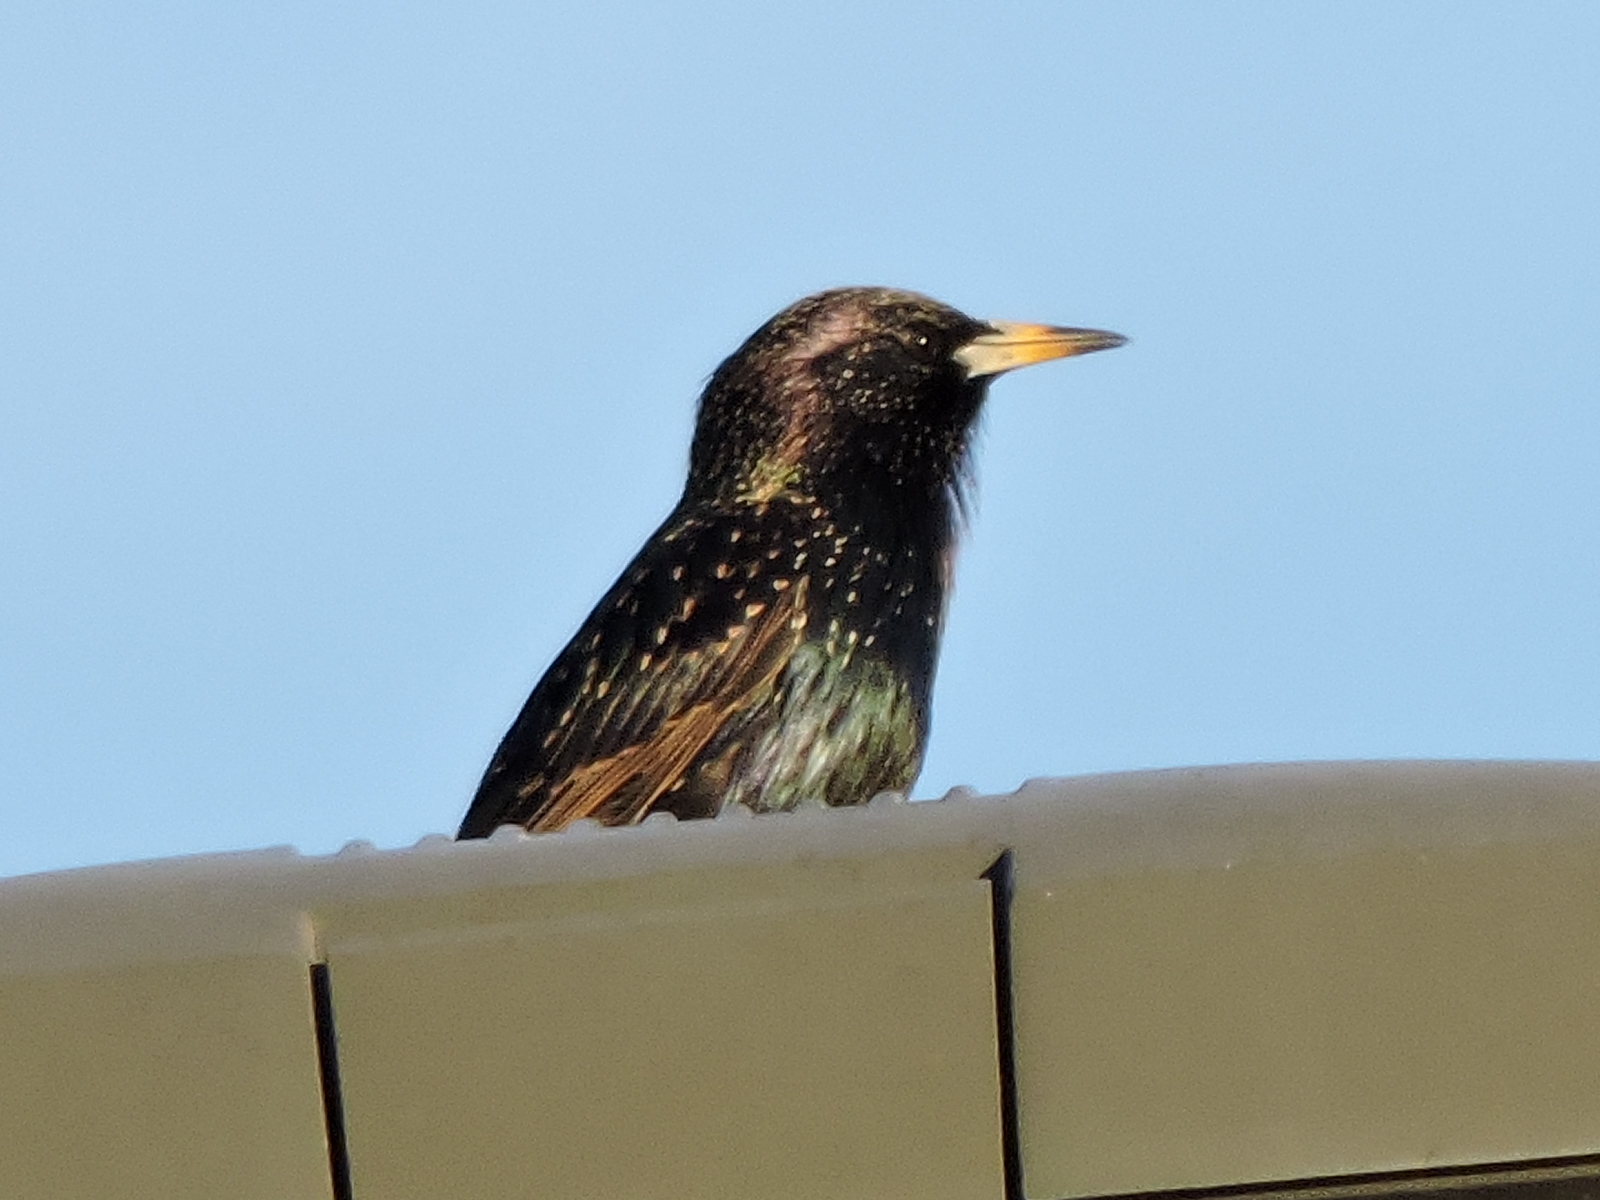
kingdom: Animalia
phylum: Chordata
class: Aves
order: Passeriformes
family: Sturnidae
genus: Sturnus
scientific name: Sturnus vulgaris
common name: Common starling
